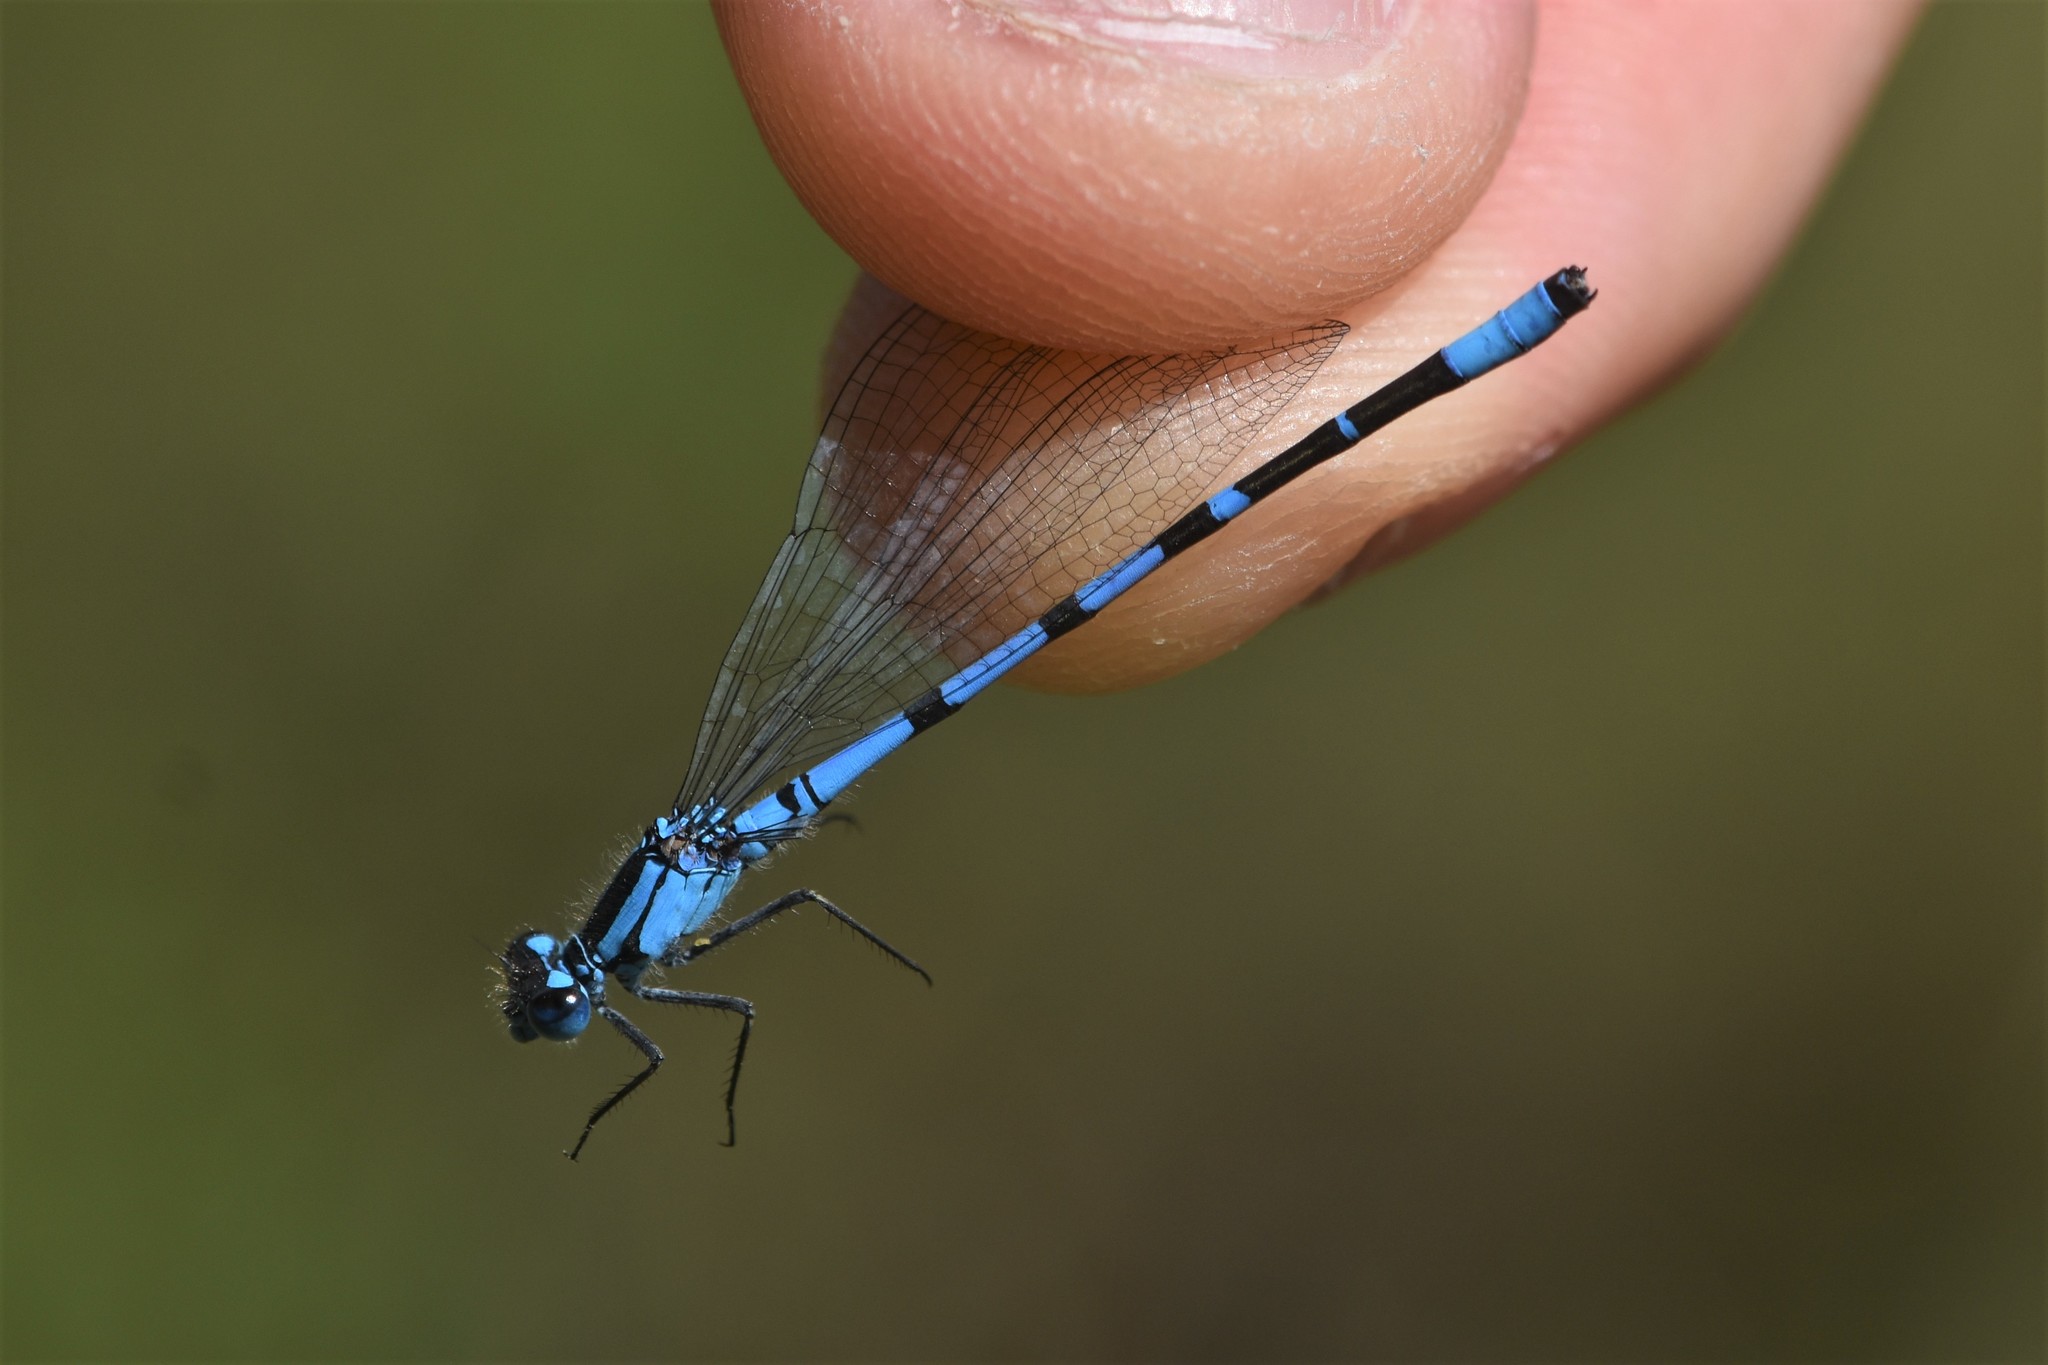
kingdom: Animalia
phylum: Arthropoda
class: Insecta
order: Odonata
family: Coenagrionidae
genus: Enallagma
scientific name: Enallagma boreale
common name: Boreal bluet
